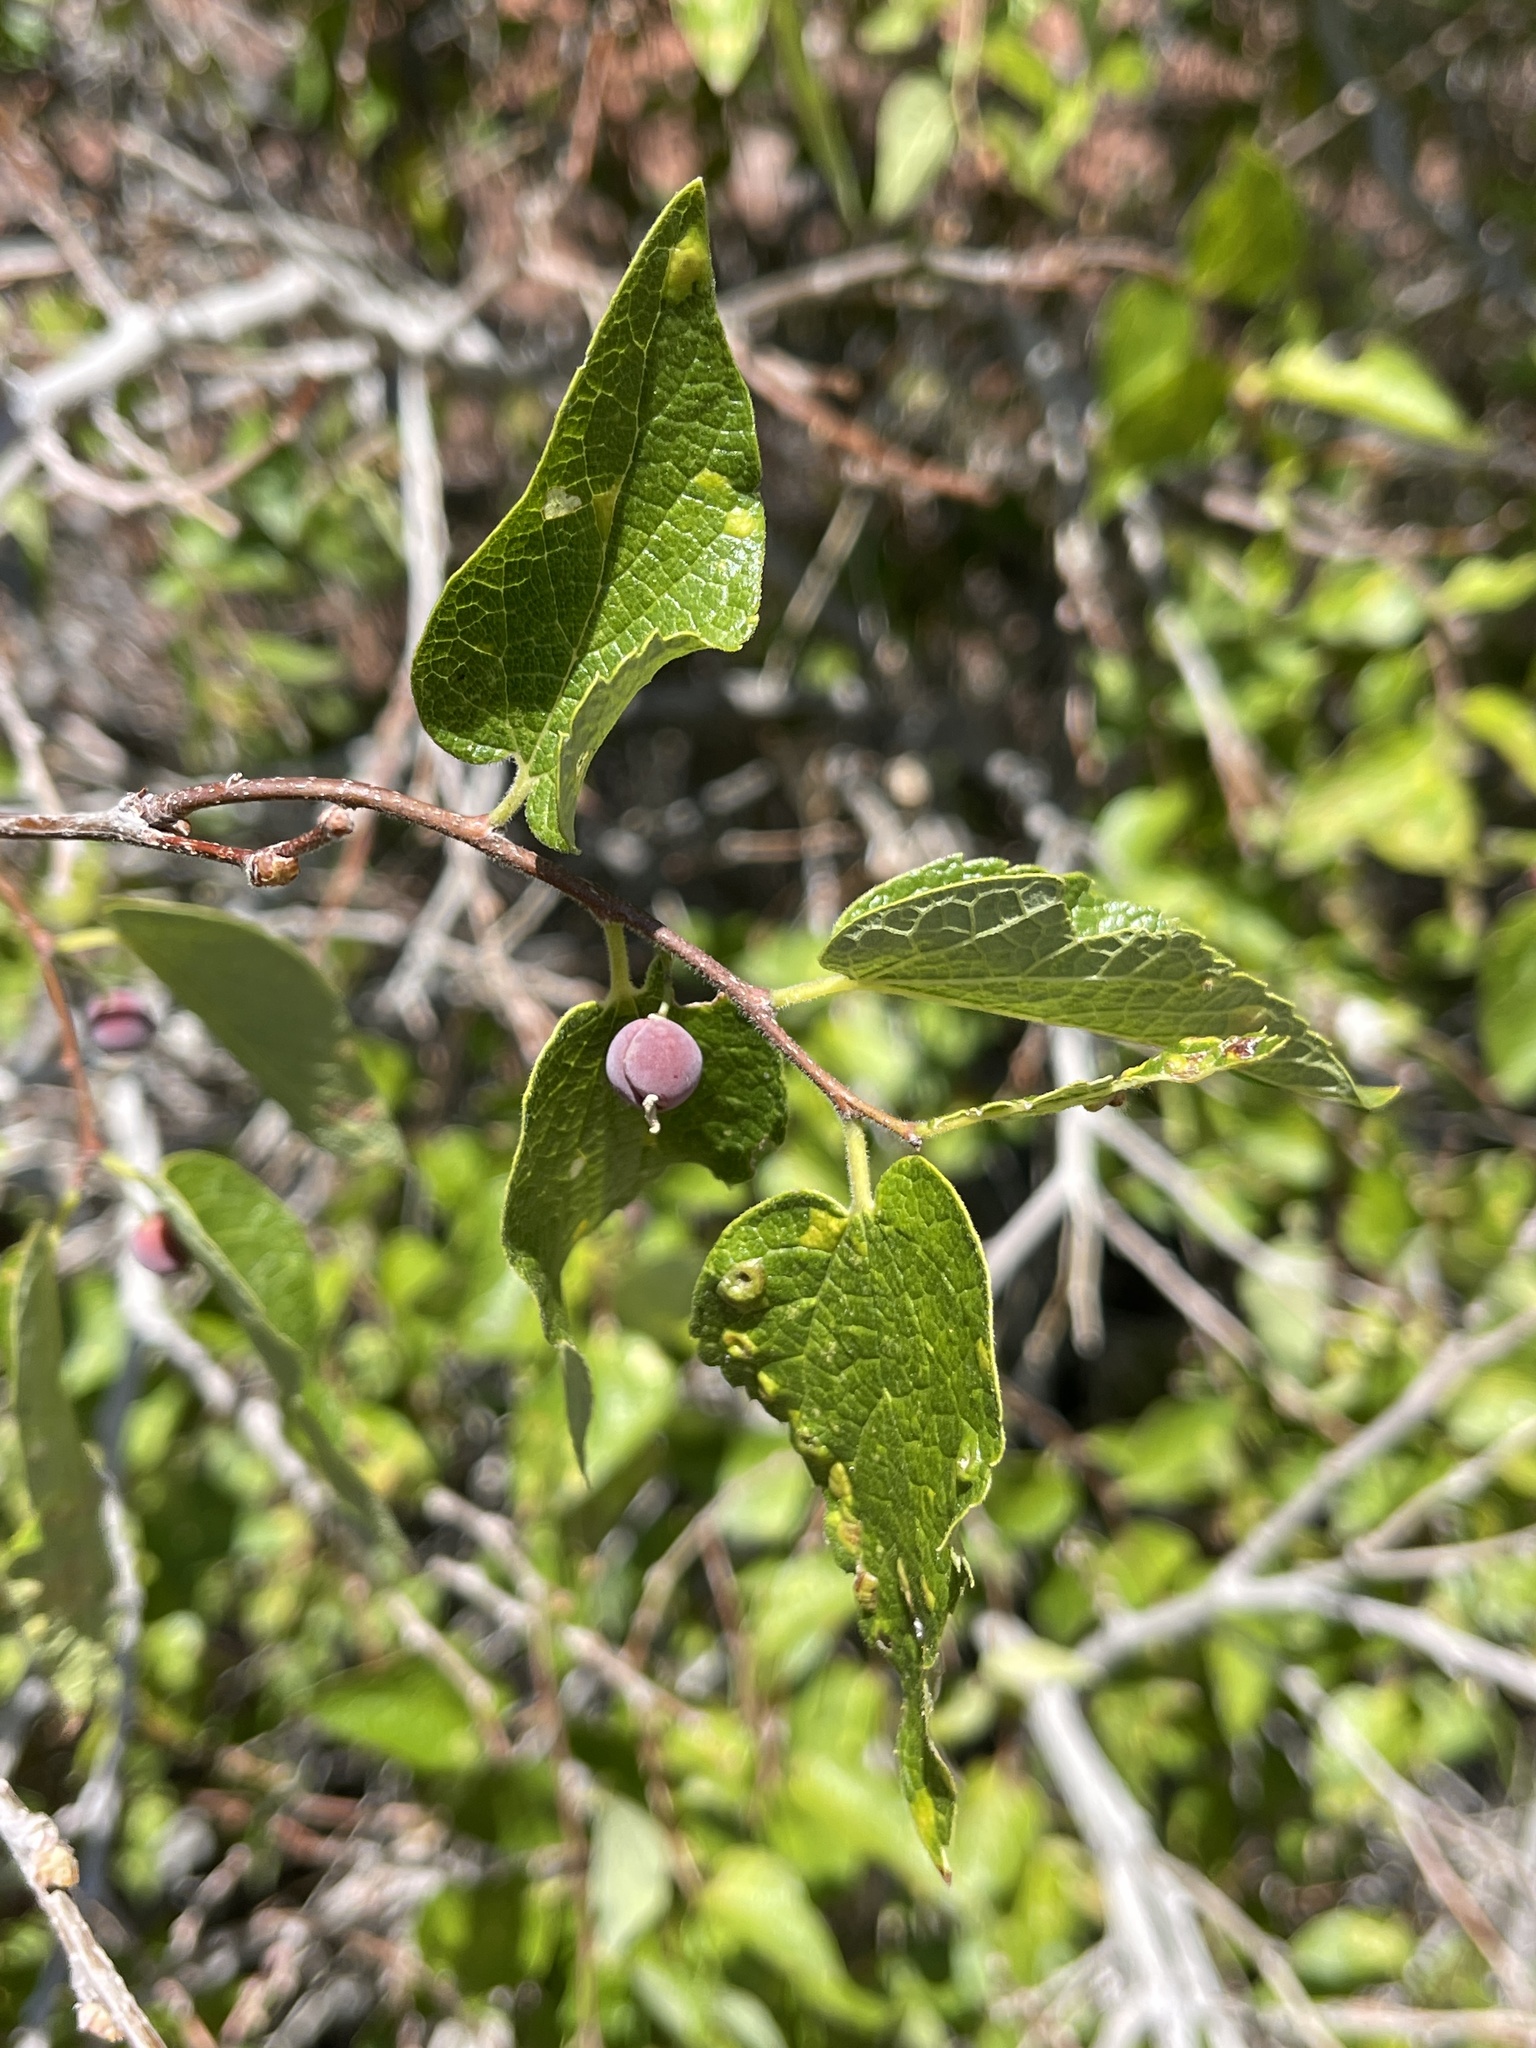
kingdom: Plantae
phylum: Tracheophyta
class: Magnoliopsida
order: Rosales
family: Cannabaceae
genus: Celtis
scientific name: Celtis reticulata
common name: Netleaf hackberry
